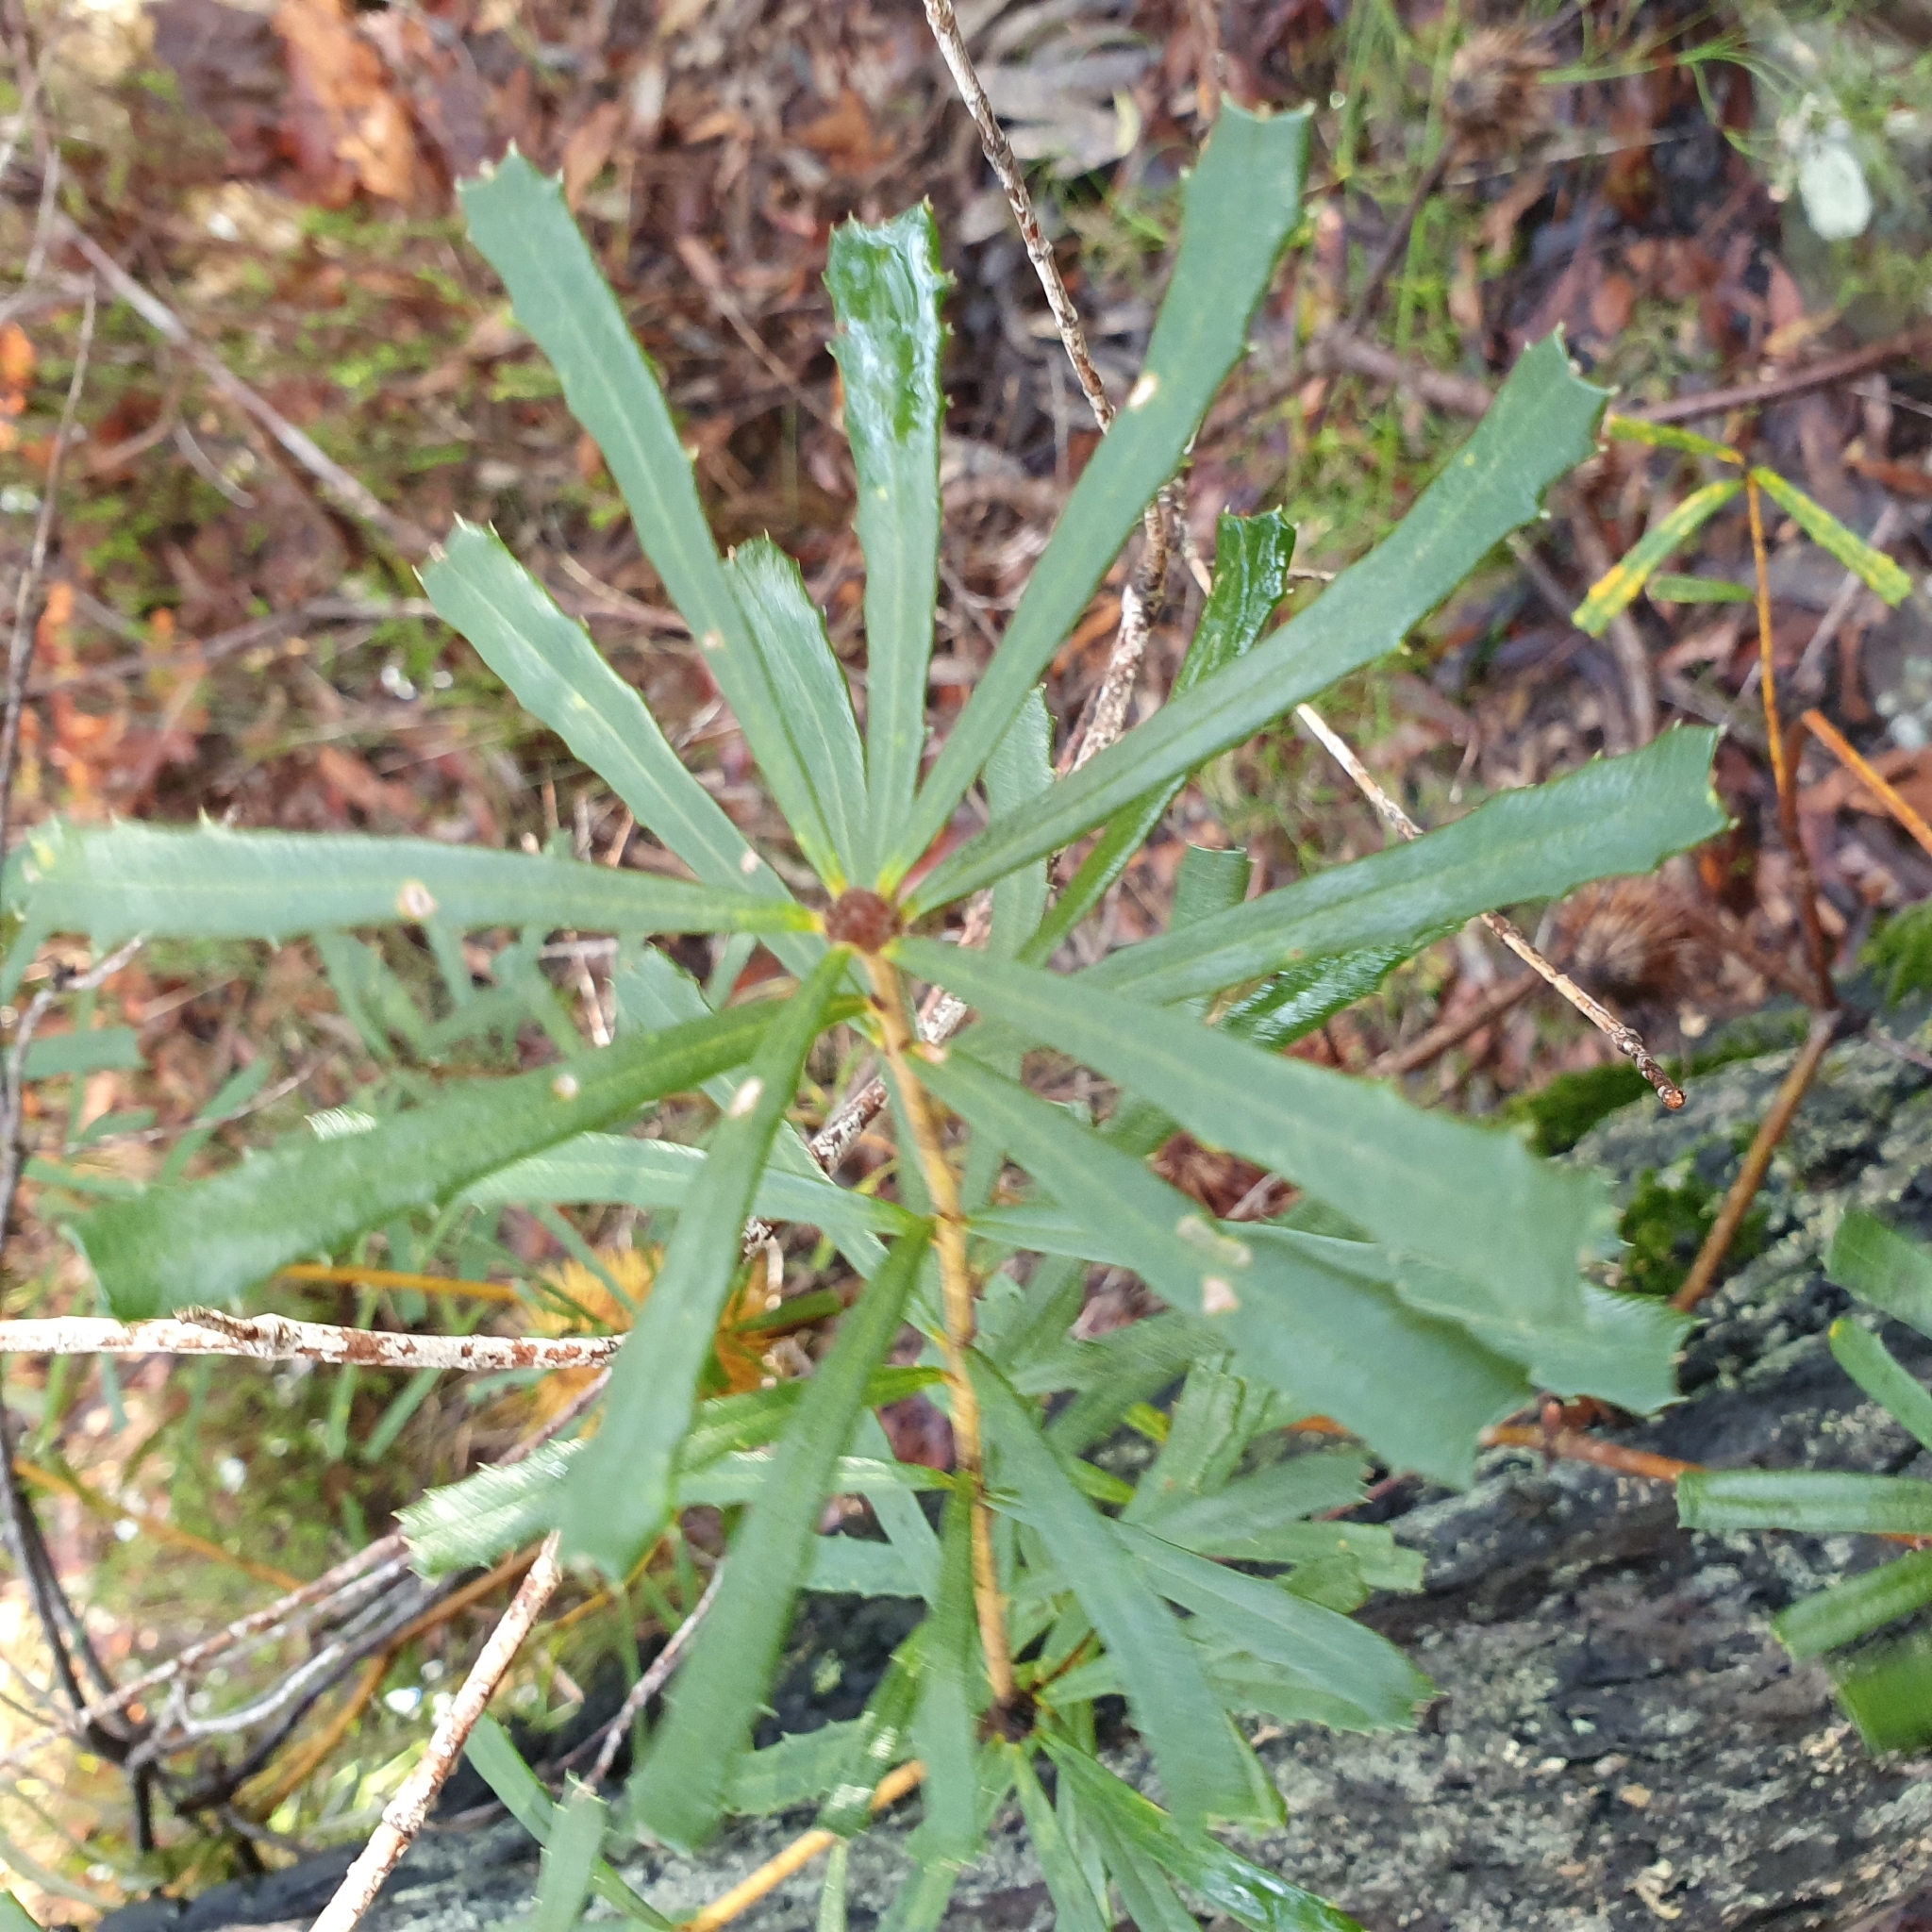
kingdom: Plantae
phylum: Tracheophyta
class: Magnoliopsida
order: Proteales
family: Proteaceae
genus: Banksia
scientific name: Banksia marginata
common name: Silver banksia
